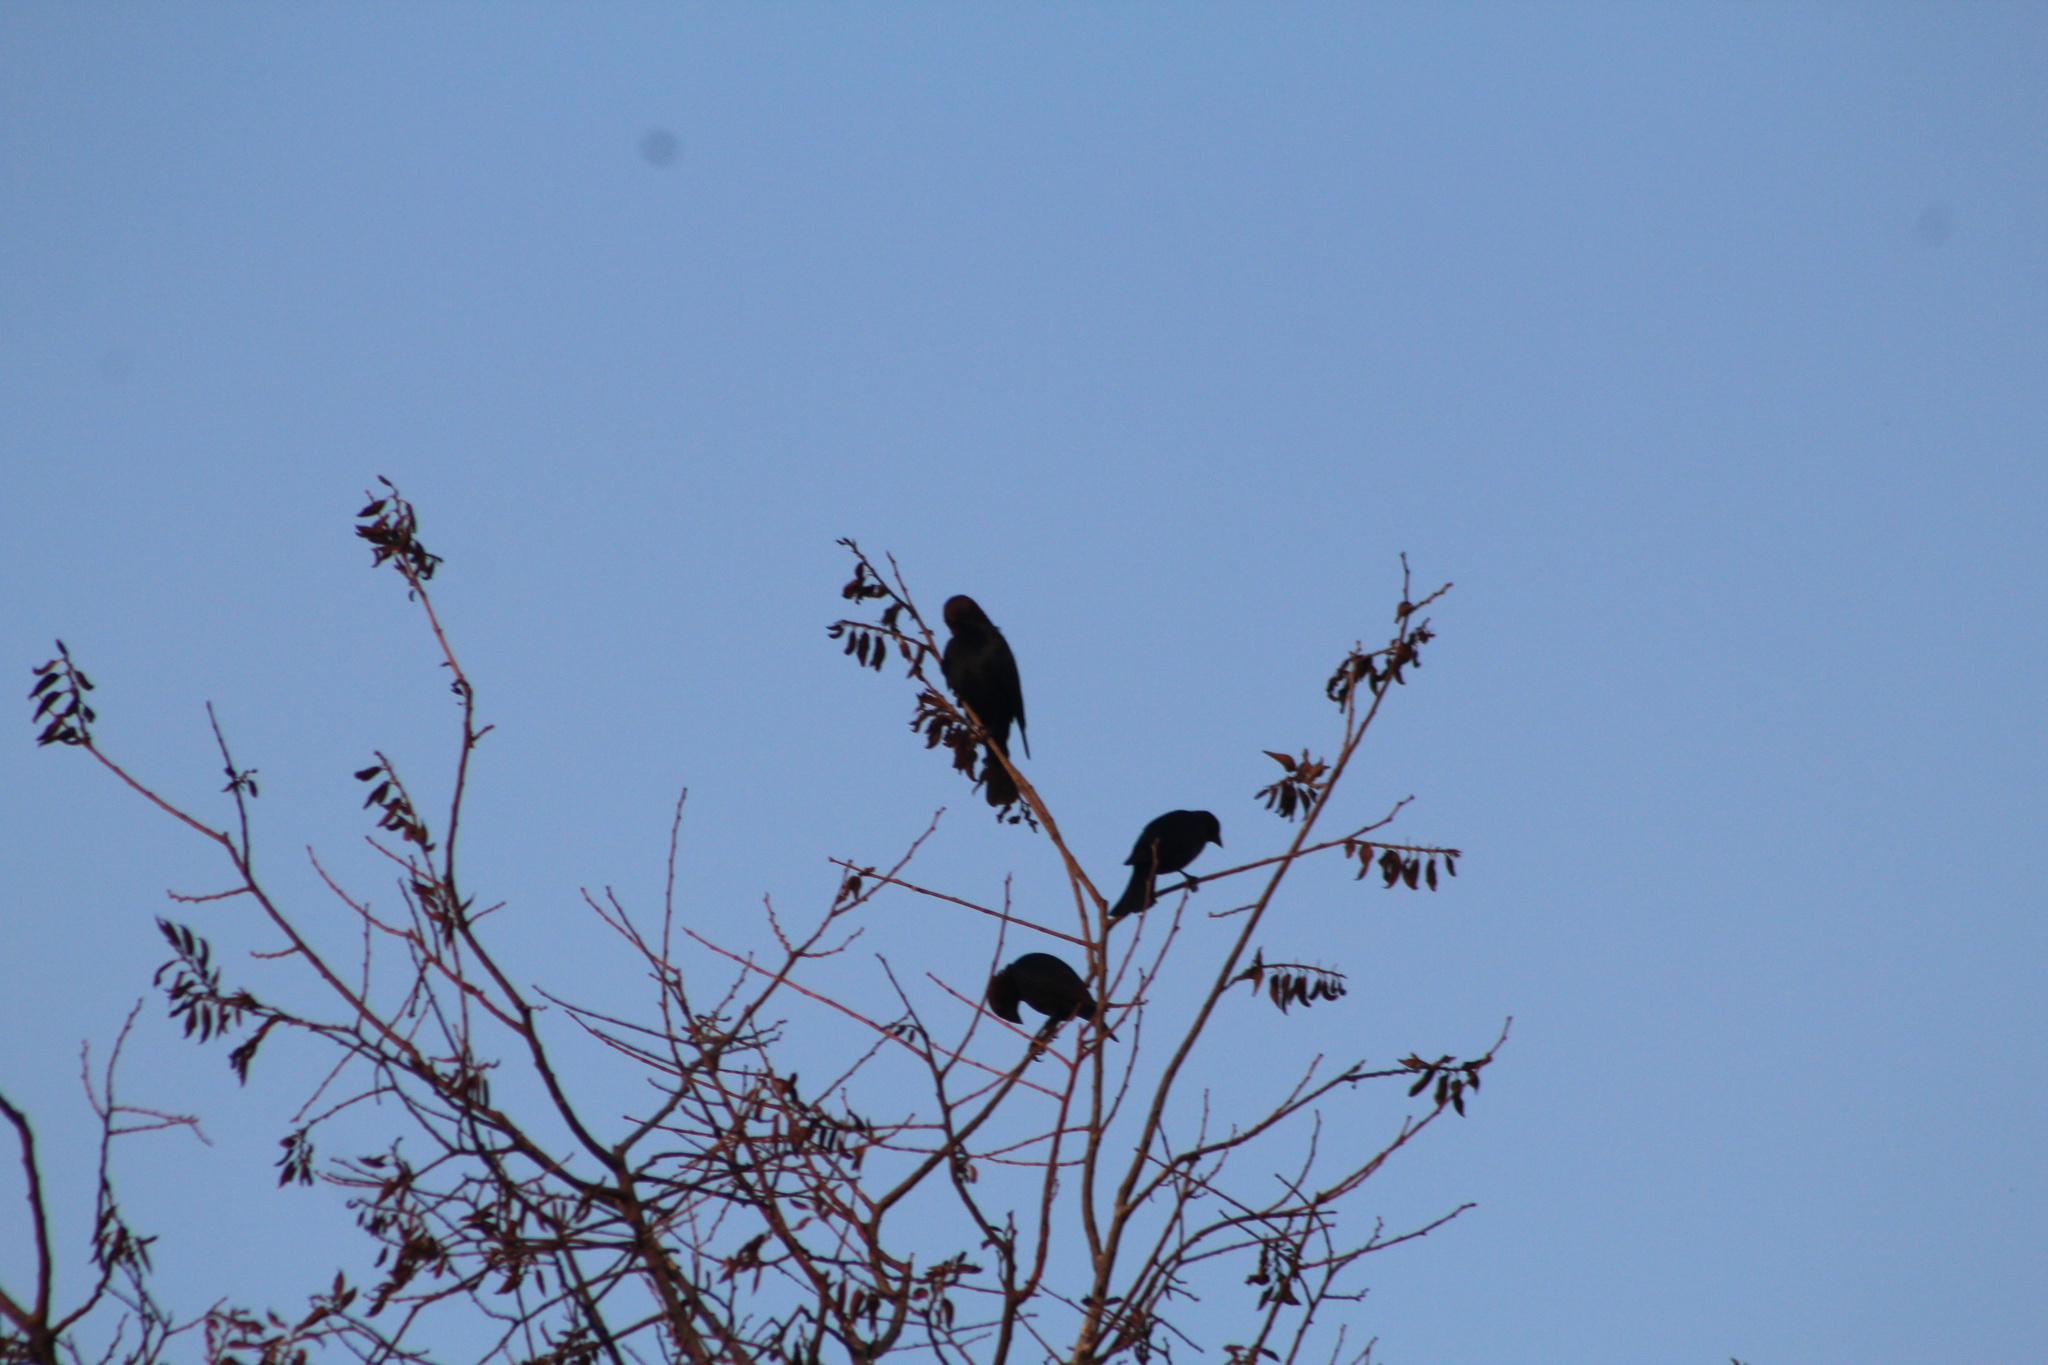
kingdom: Animalia
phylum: Chordata
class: Aves
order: Passeriformes
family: Icteridae
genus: Molothrus
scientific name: Molothrus ater
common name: Brown-headed cowbird
